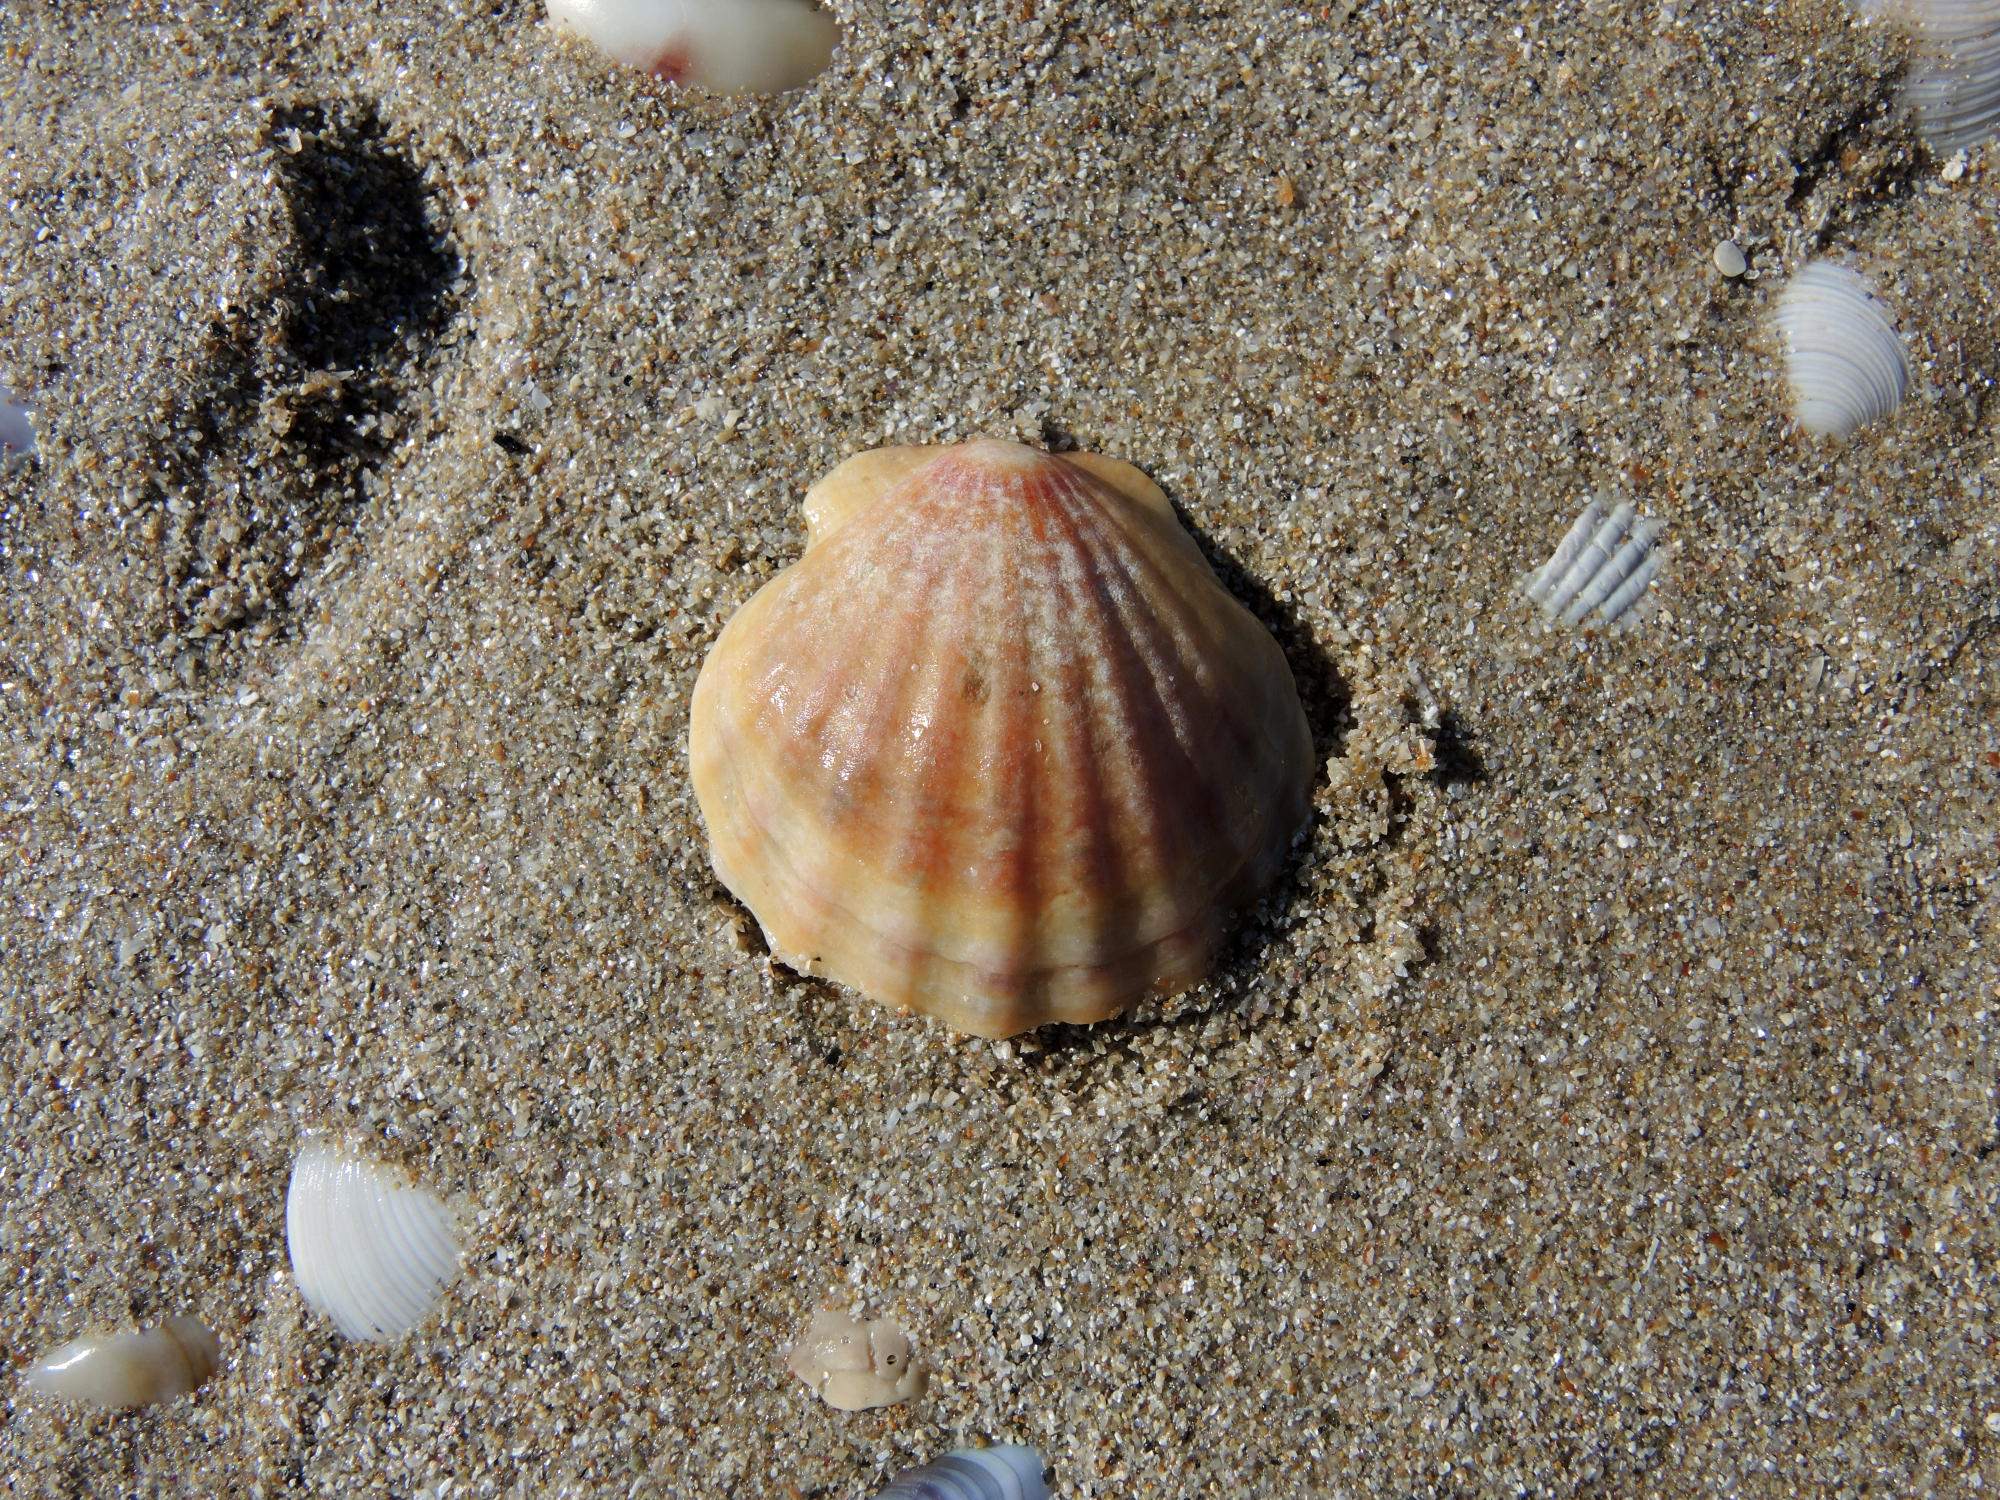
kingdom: Animalia
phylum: Mollusca
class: Bivalvia
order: Pectinida
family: Pectinidae
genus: Flexopecten
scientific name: Flexopecten glaber
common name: Smooth scallop
